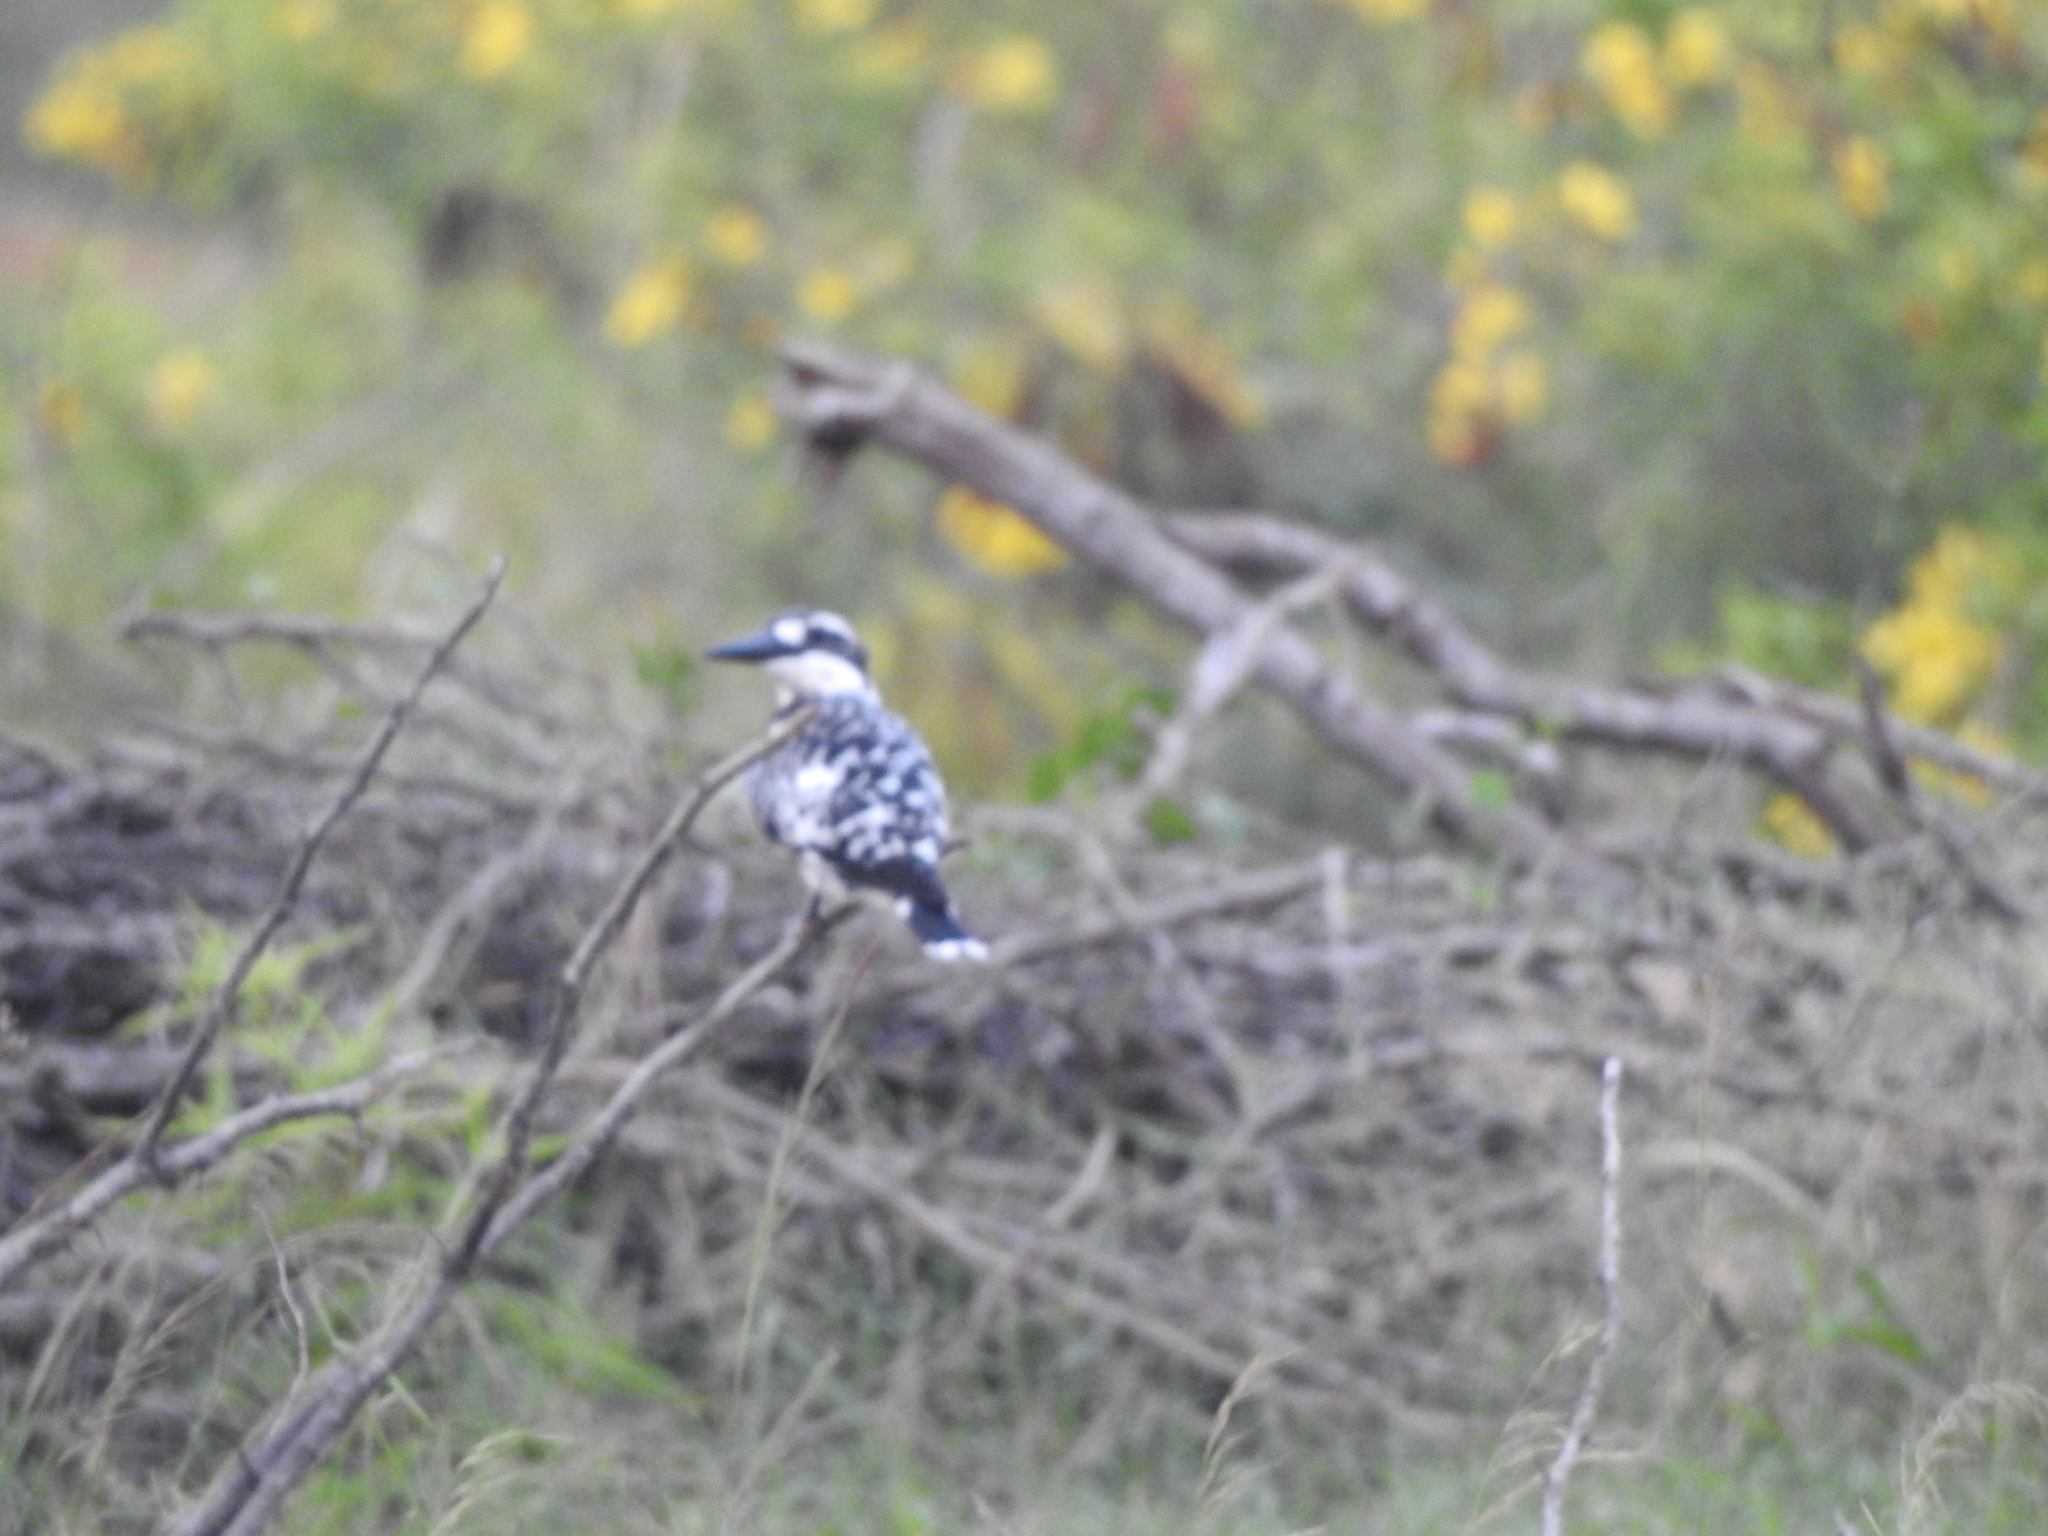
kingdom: Animalia
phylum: Chordata
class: Aves
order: Coraciiformes
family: Alcedinidae
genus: Ceryle
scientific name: Ceryle rudis
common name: Pied kingfisher
